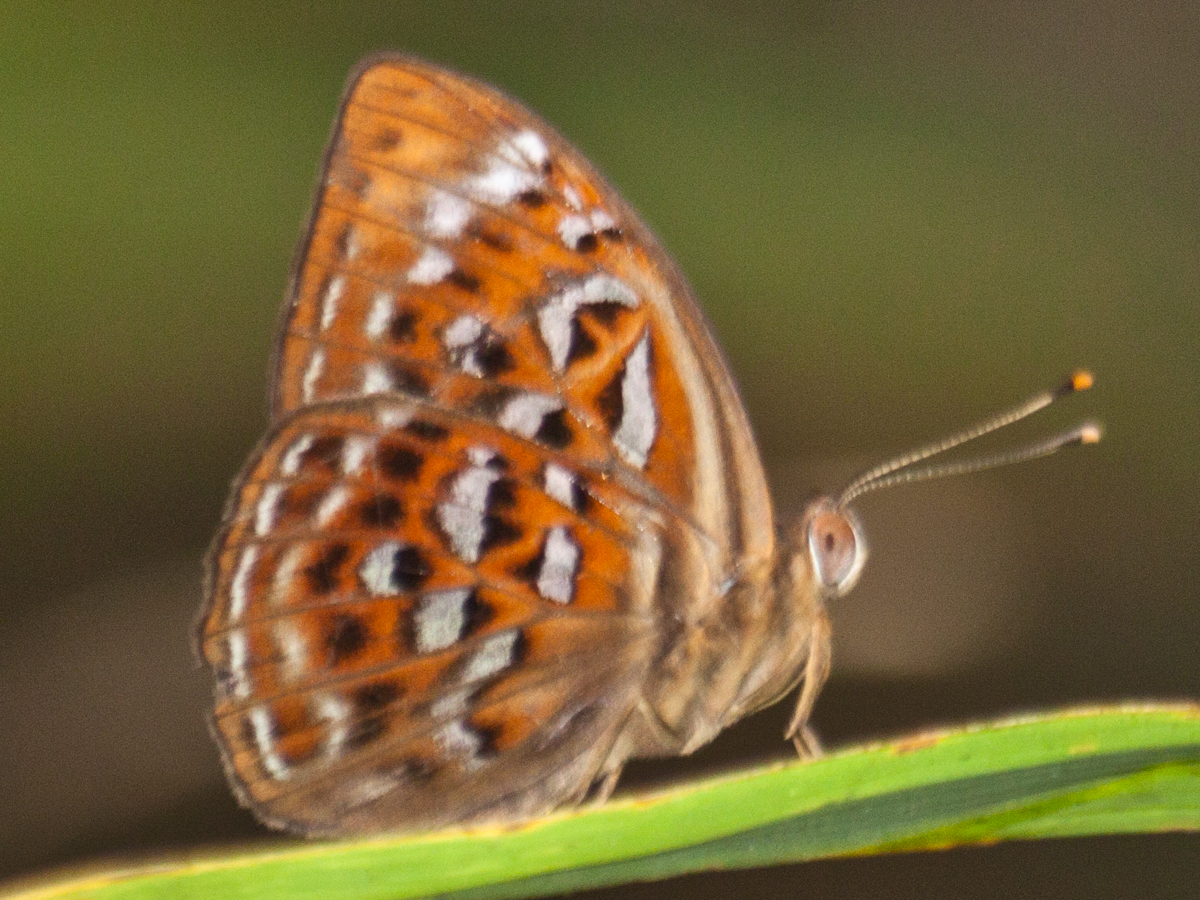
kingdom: Animalia
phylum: Arthropoda
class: Insecta
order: Lepidoptera
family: Erebidae
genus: Dysschema
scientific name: Dysschema
